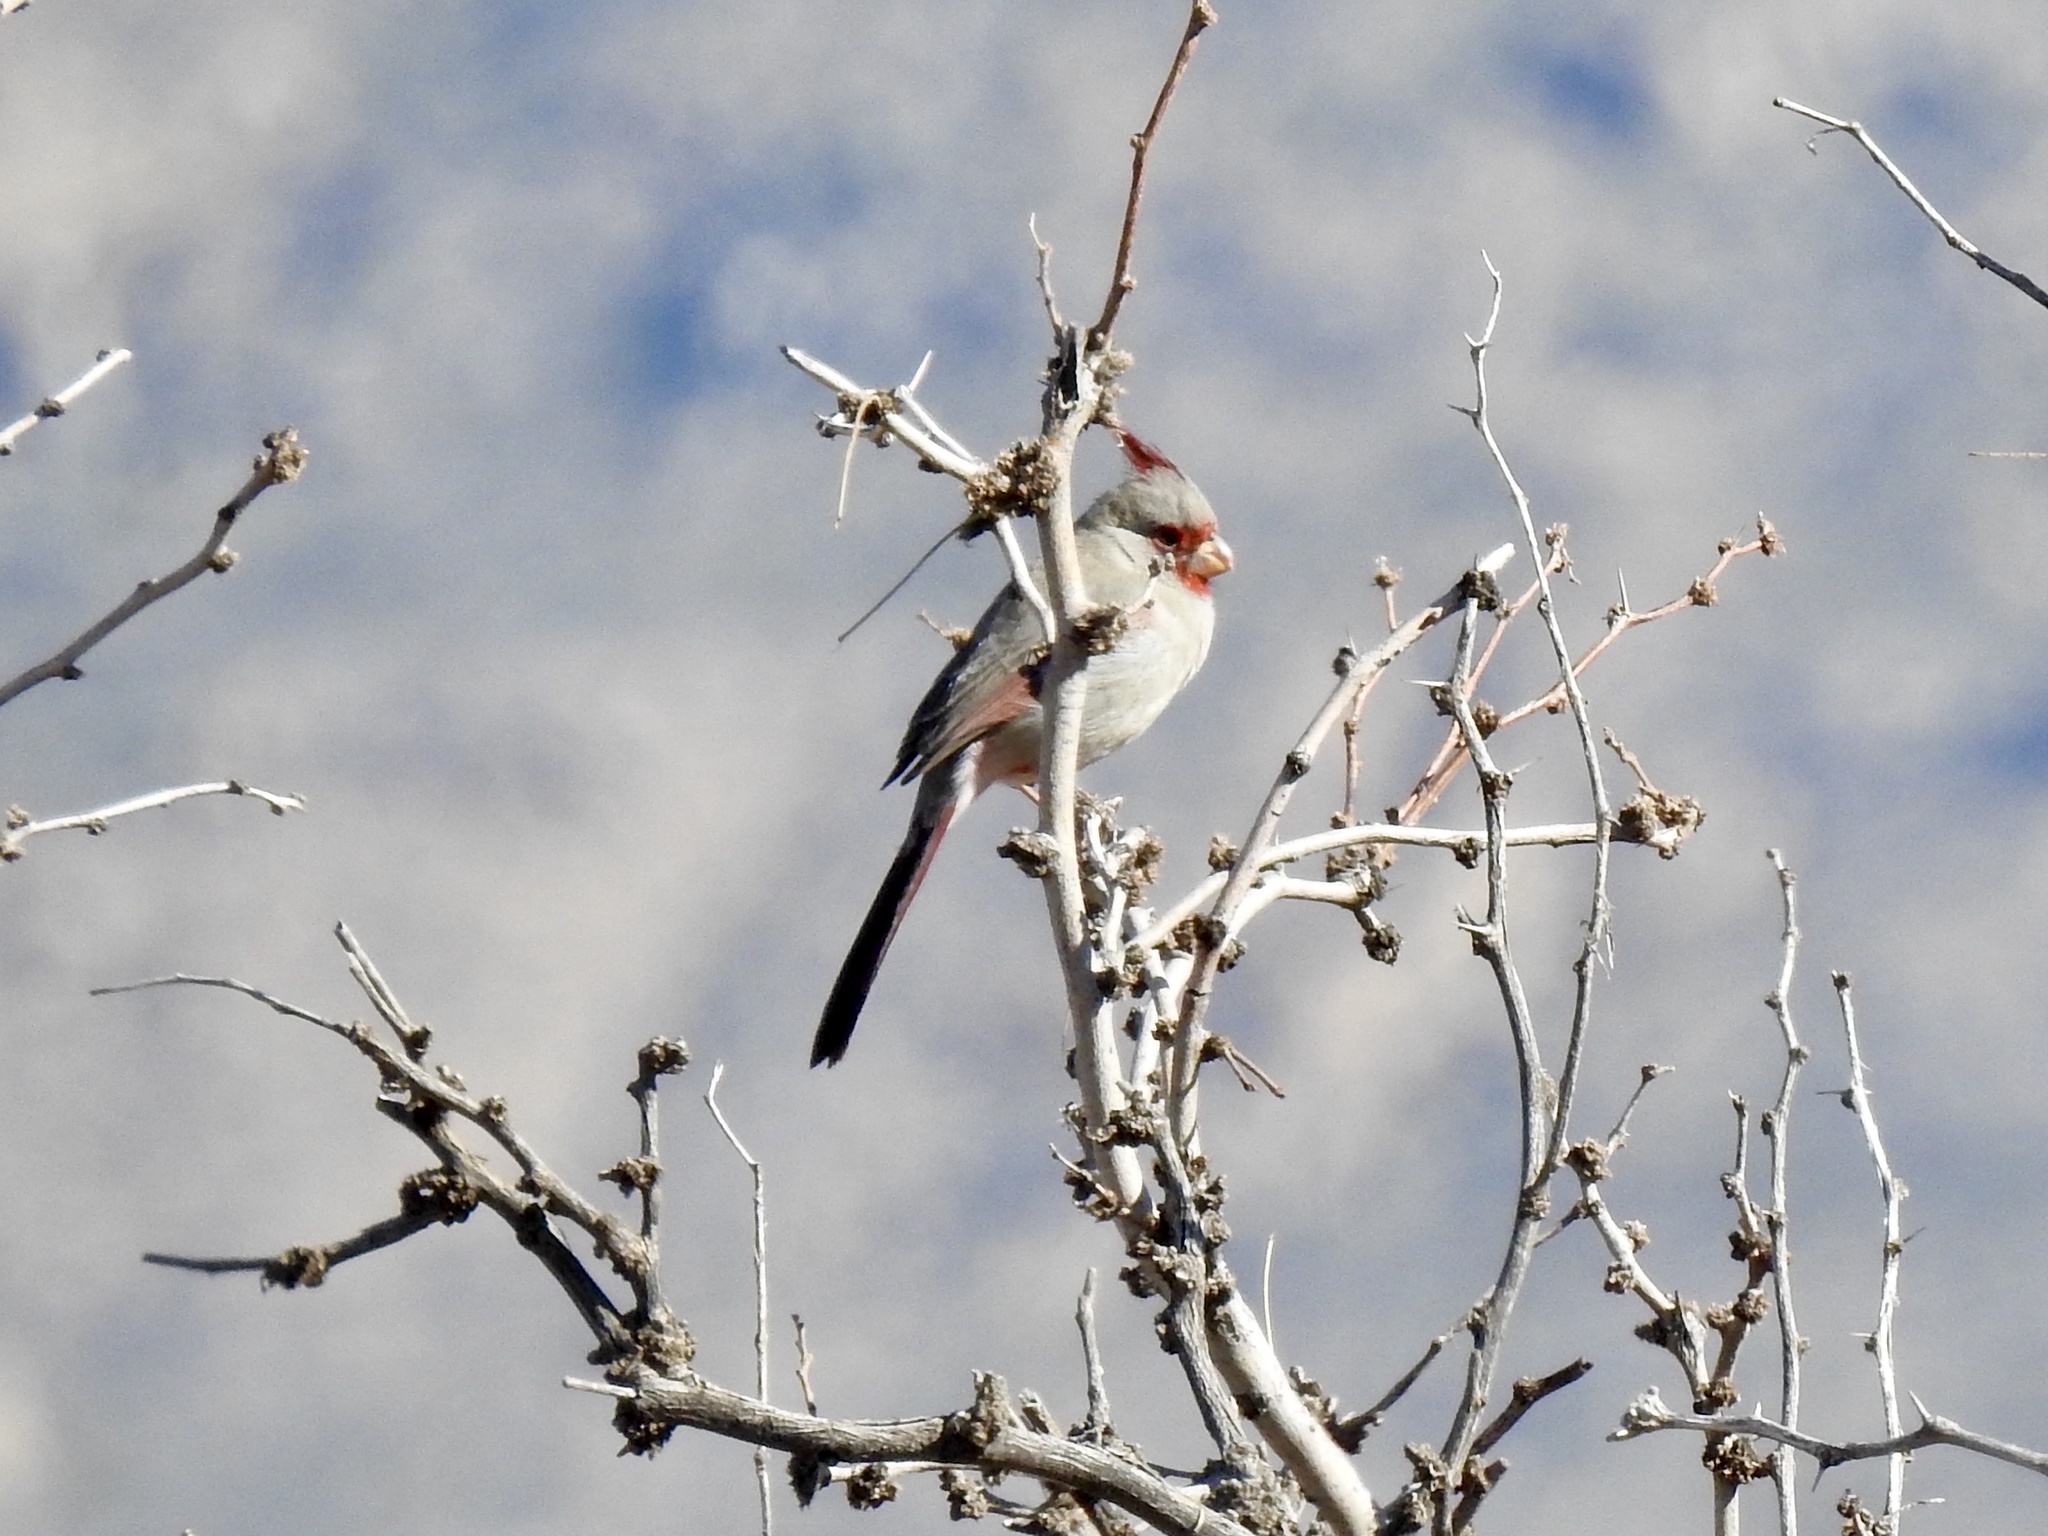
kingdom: Animalia
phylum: Chordata
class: Aves
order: Passeriformes
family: Cardinalidae
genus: Cardinalis
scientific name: Cardinalis sinuatus
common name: Pyrrhuloxia
